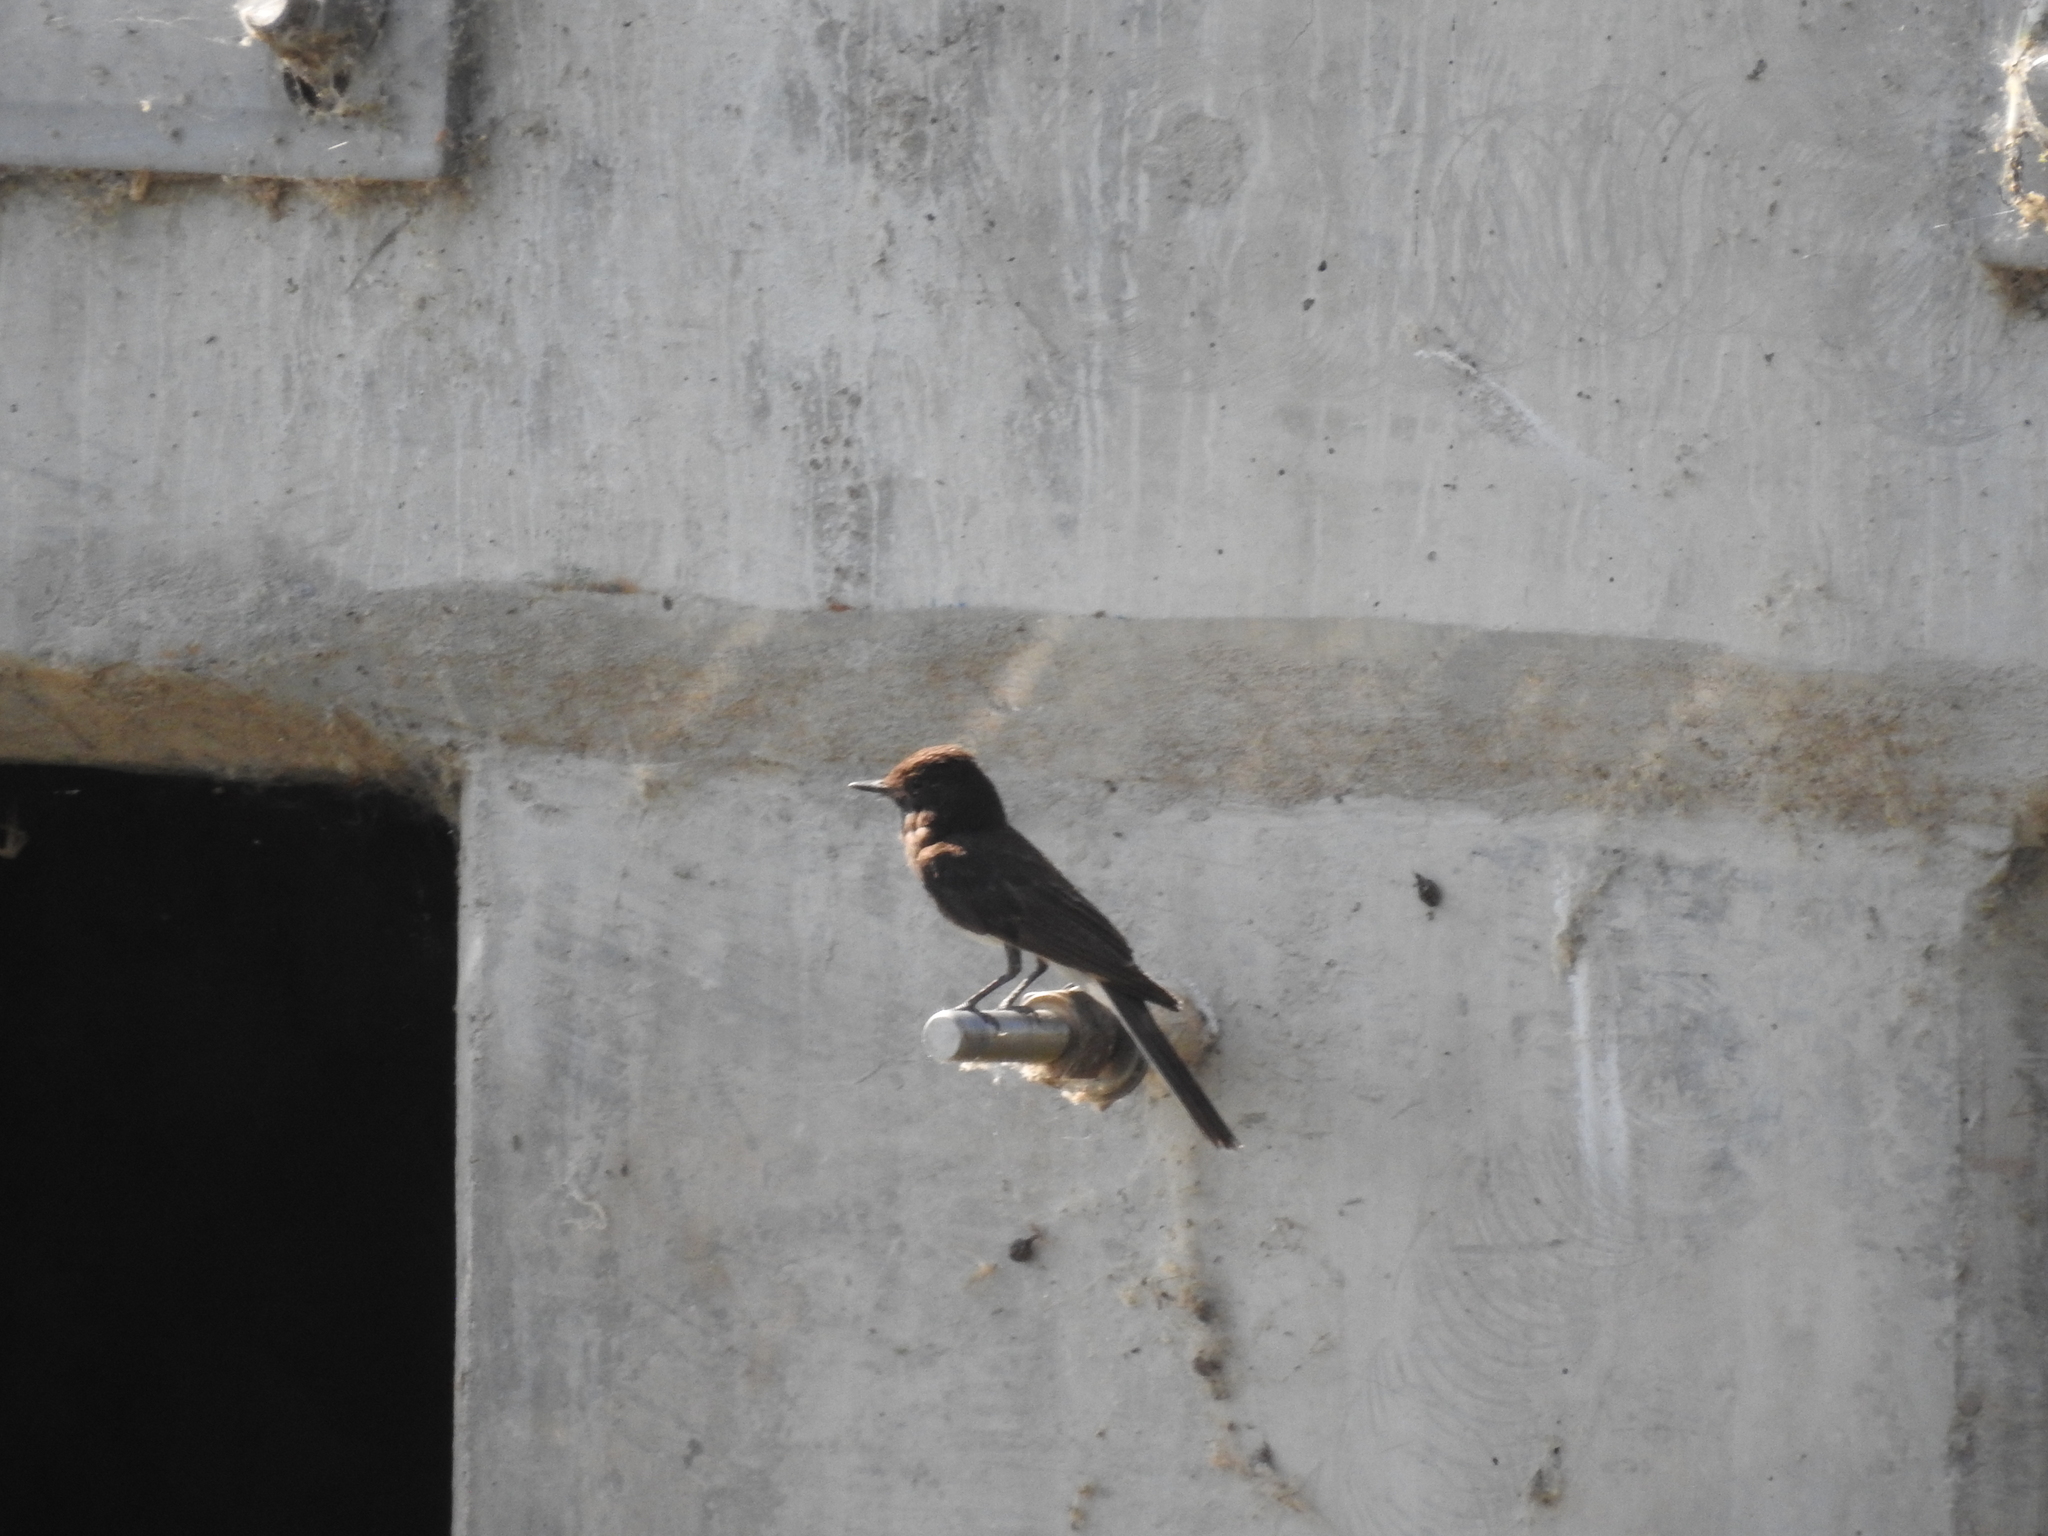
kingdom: Animalia
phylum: Chordata
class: Aves
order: Passeriformes
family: Tyrannidae
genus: Sayornis
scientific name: Sayornis nigricans
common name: Black phoebe
